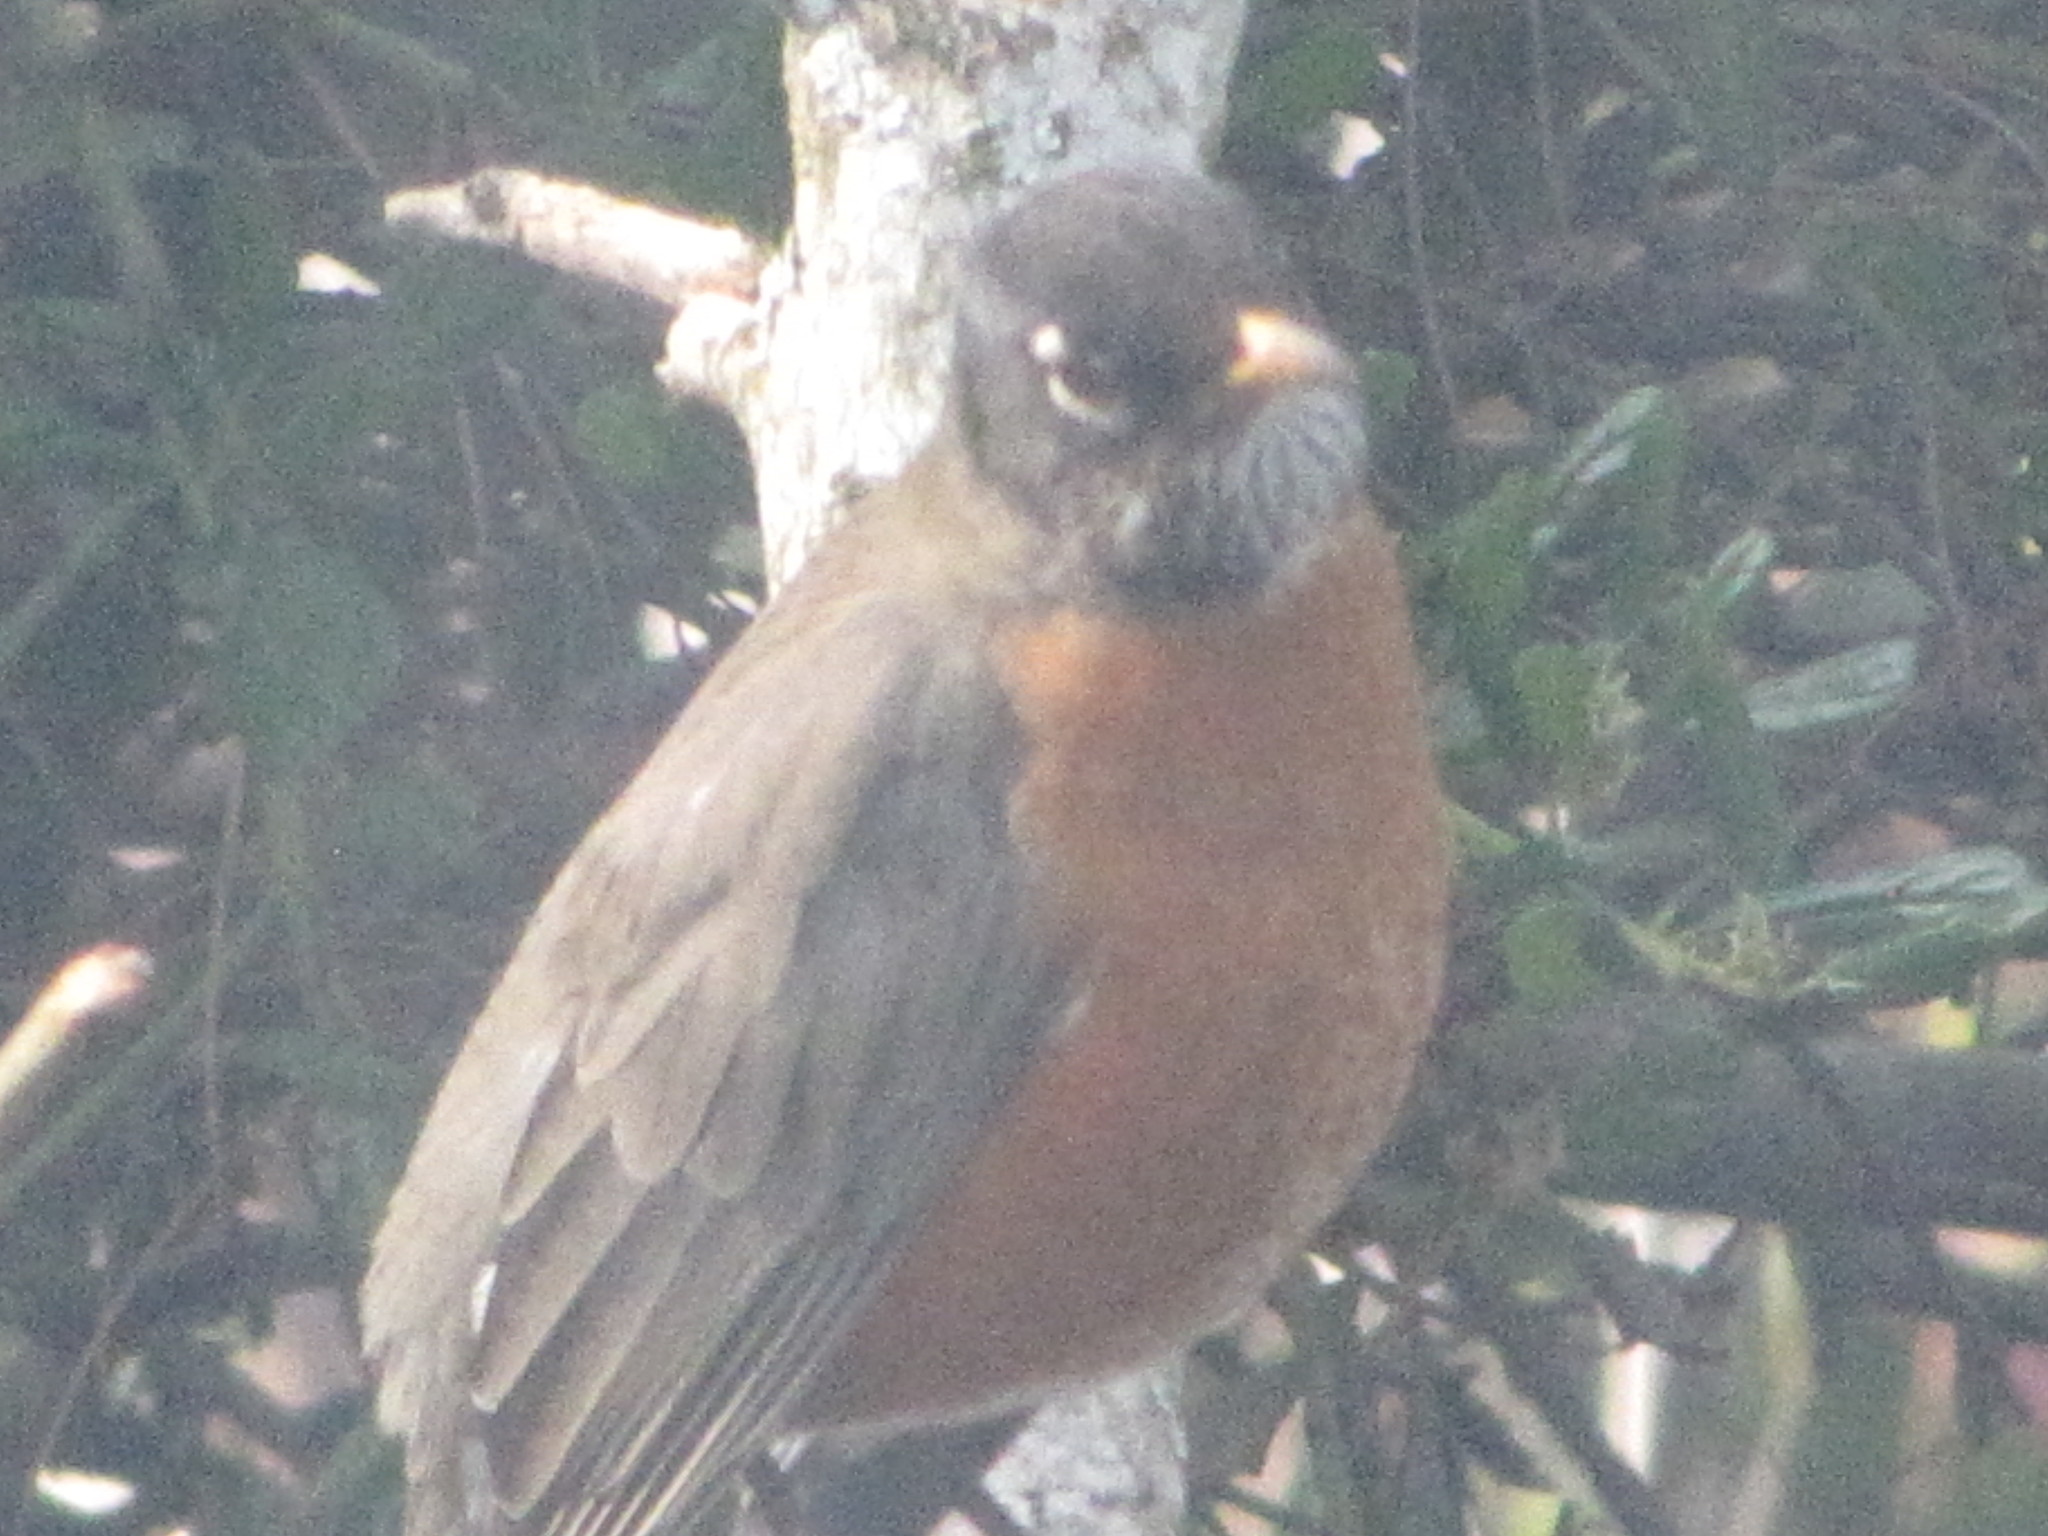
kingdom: Animalia
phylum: Chordata
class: Aves
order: Passeriformes
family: Turdidae
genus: Turdus
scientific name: Turdus migratorius
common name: American robin
